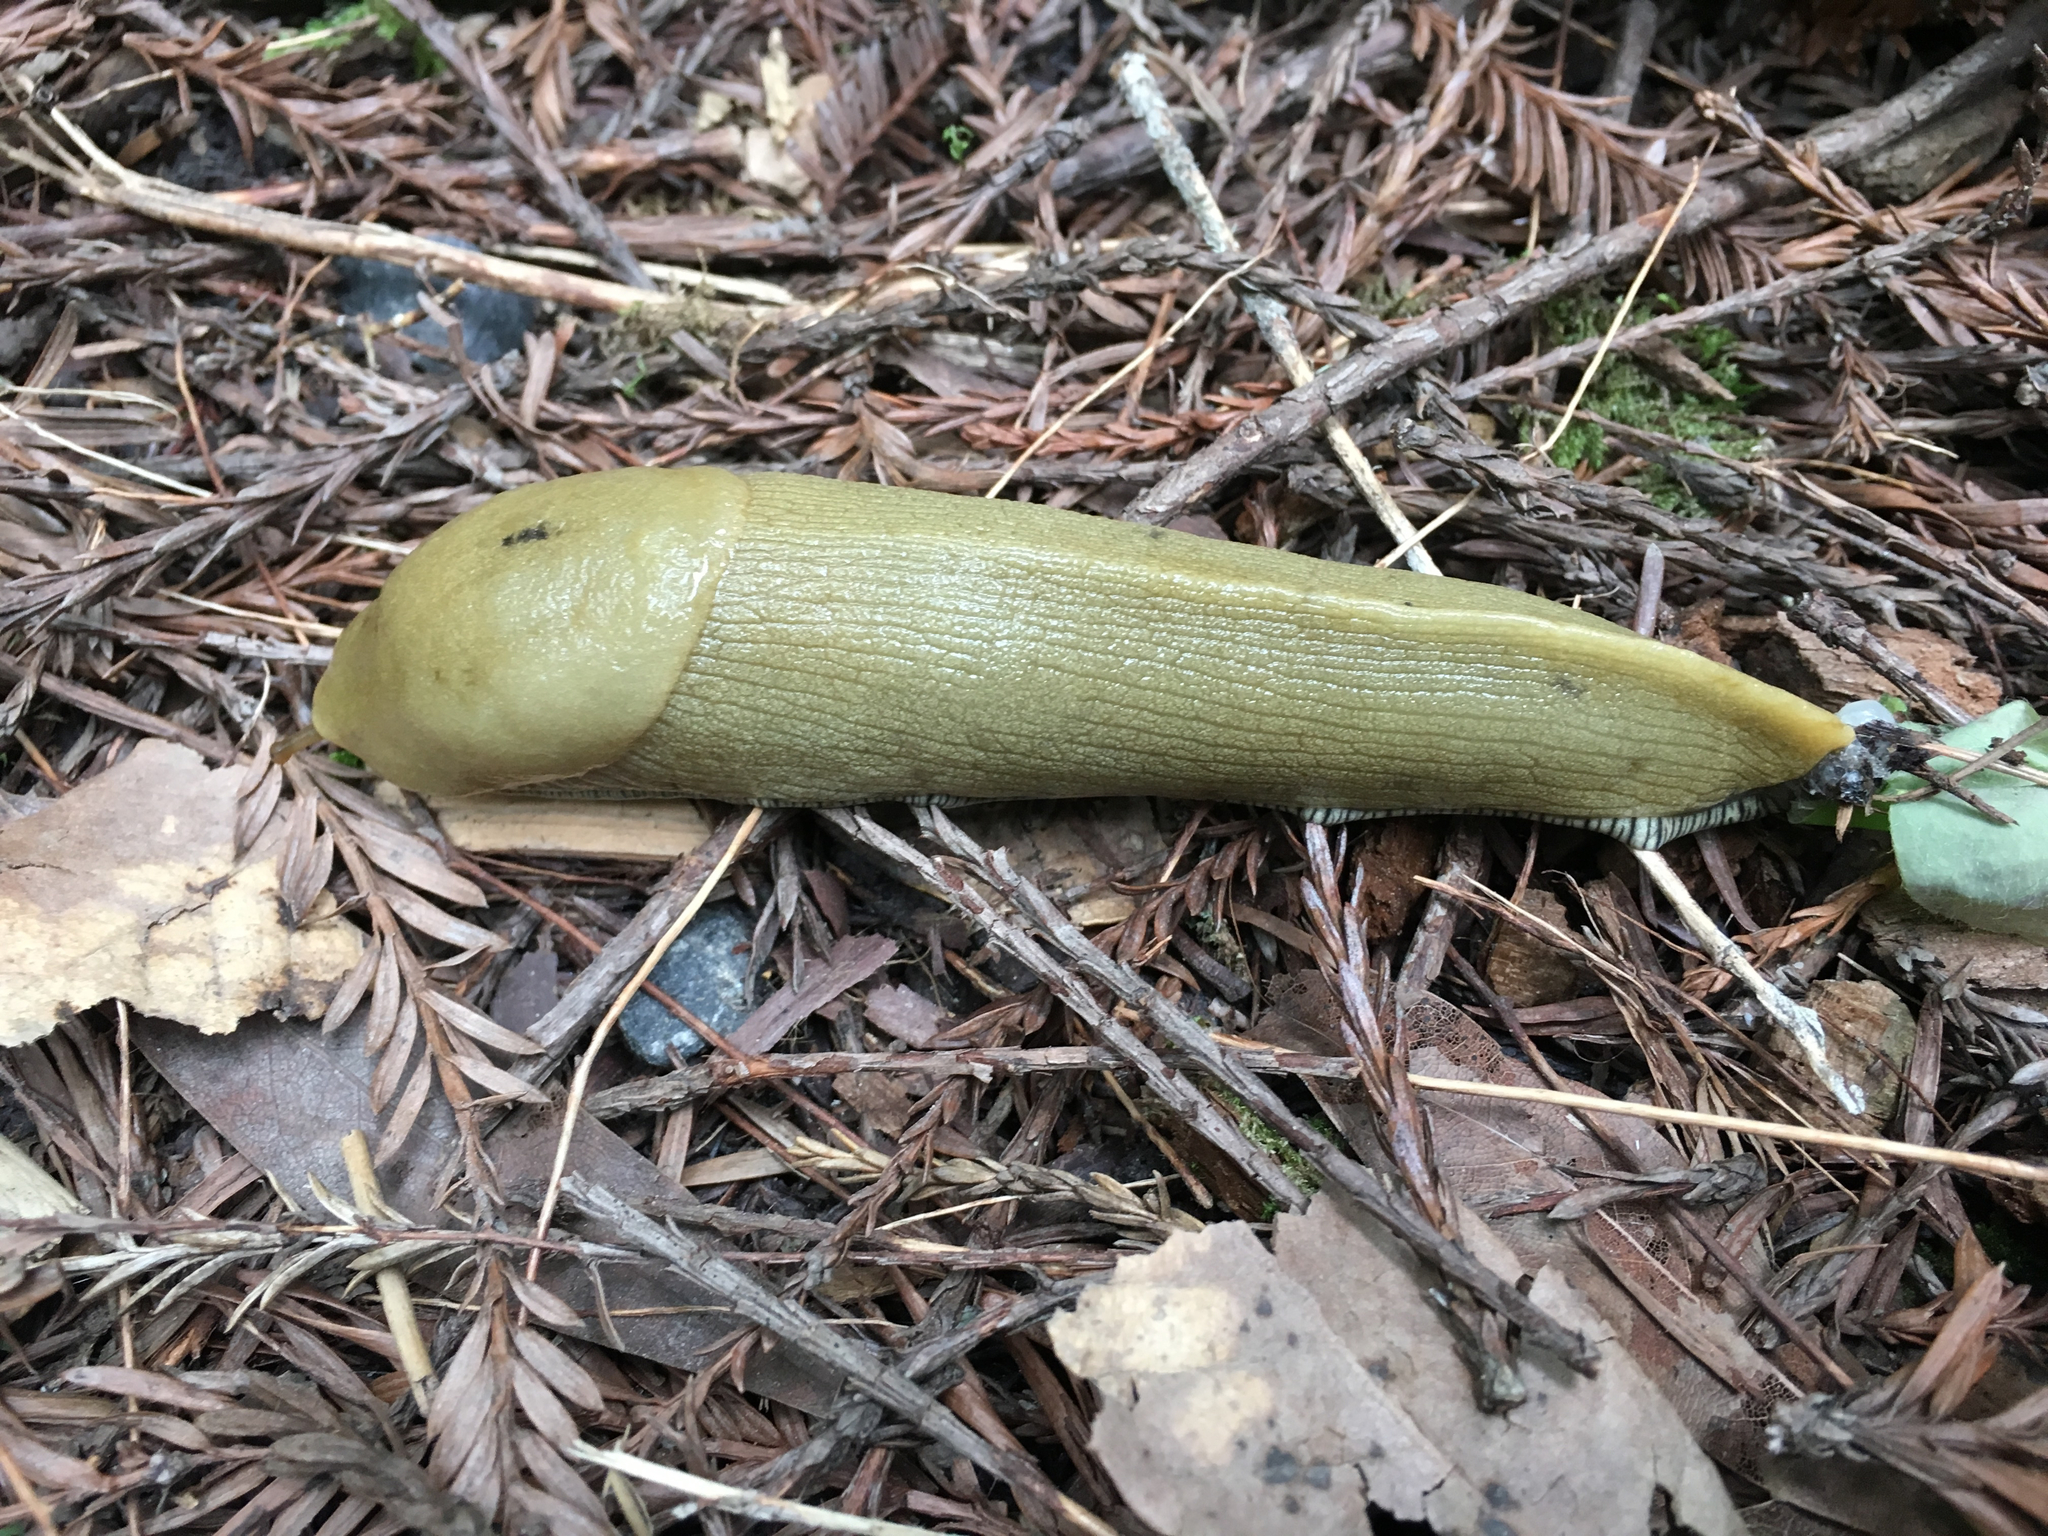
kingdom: Animalia
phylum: Mollusca
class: Gastropoda
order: Stylommatophora
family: Ariolimacidae
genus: Ariolimax
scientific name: Ariolimax buttoni
